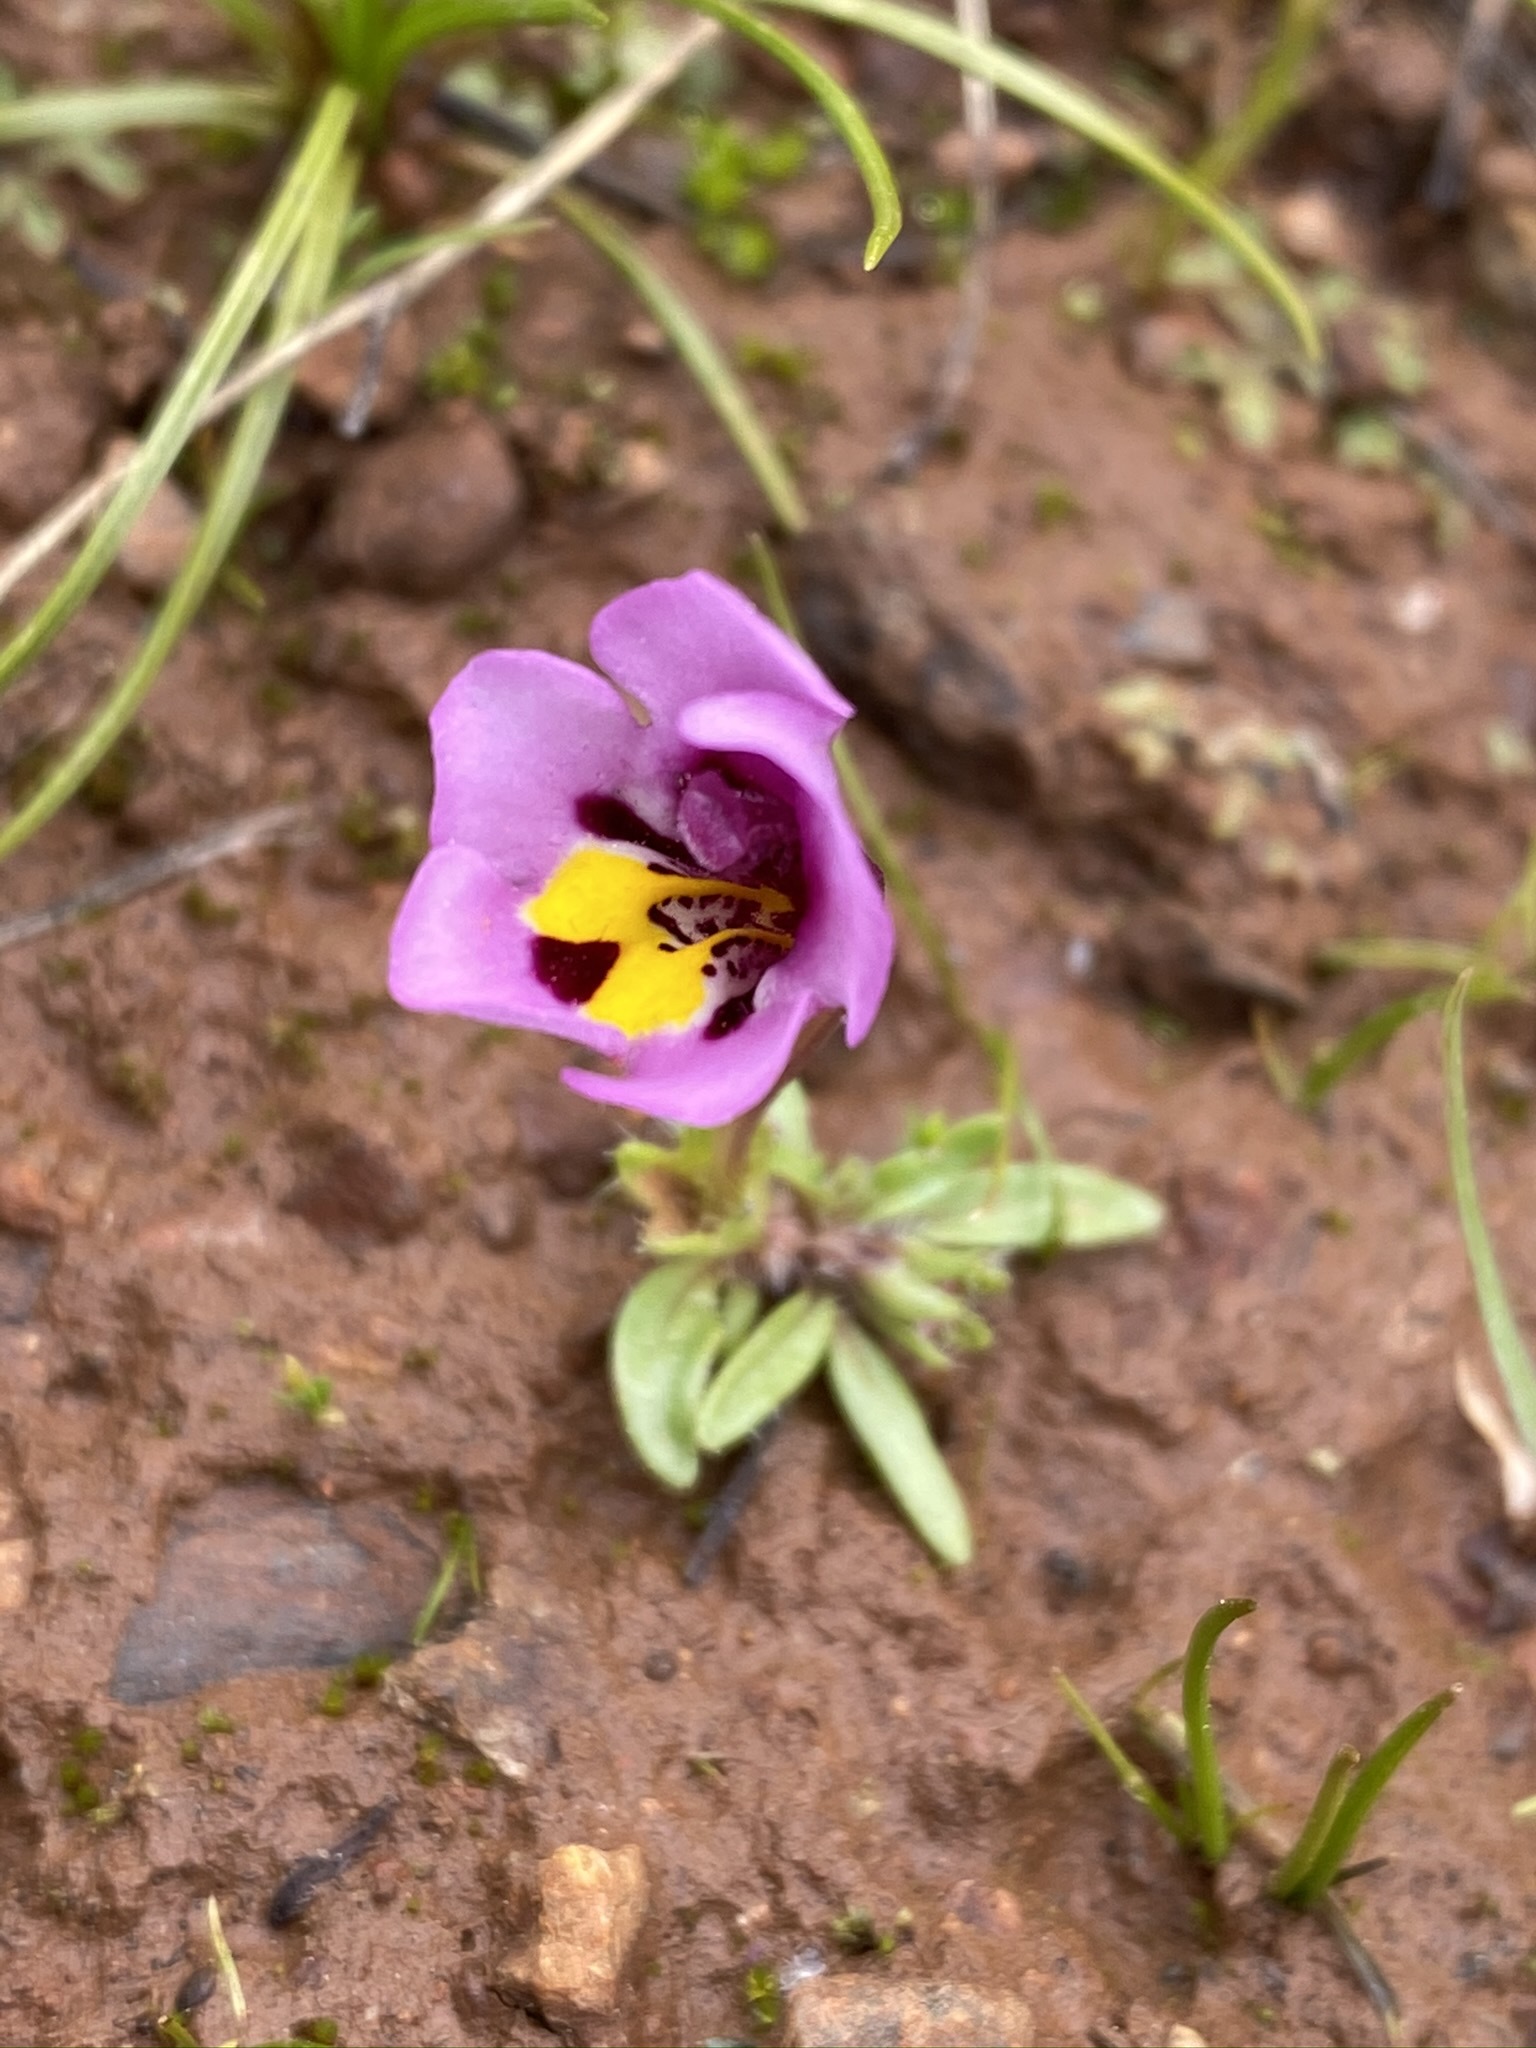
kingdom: Plantae
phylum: Tracheophyta
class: Magnoliopsida
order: Lamiales
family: Phrymaceae
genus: Diplacus
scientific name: Diplacus angustatus
